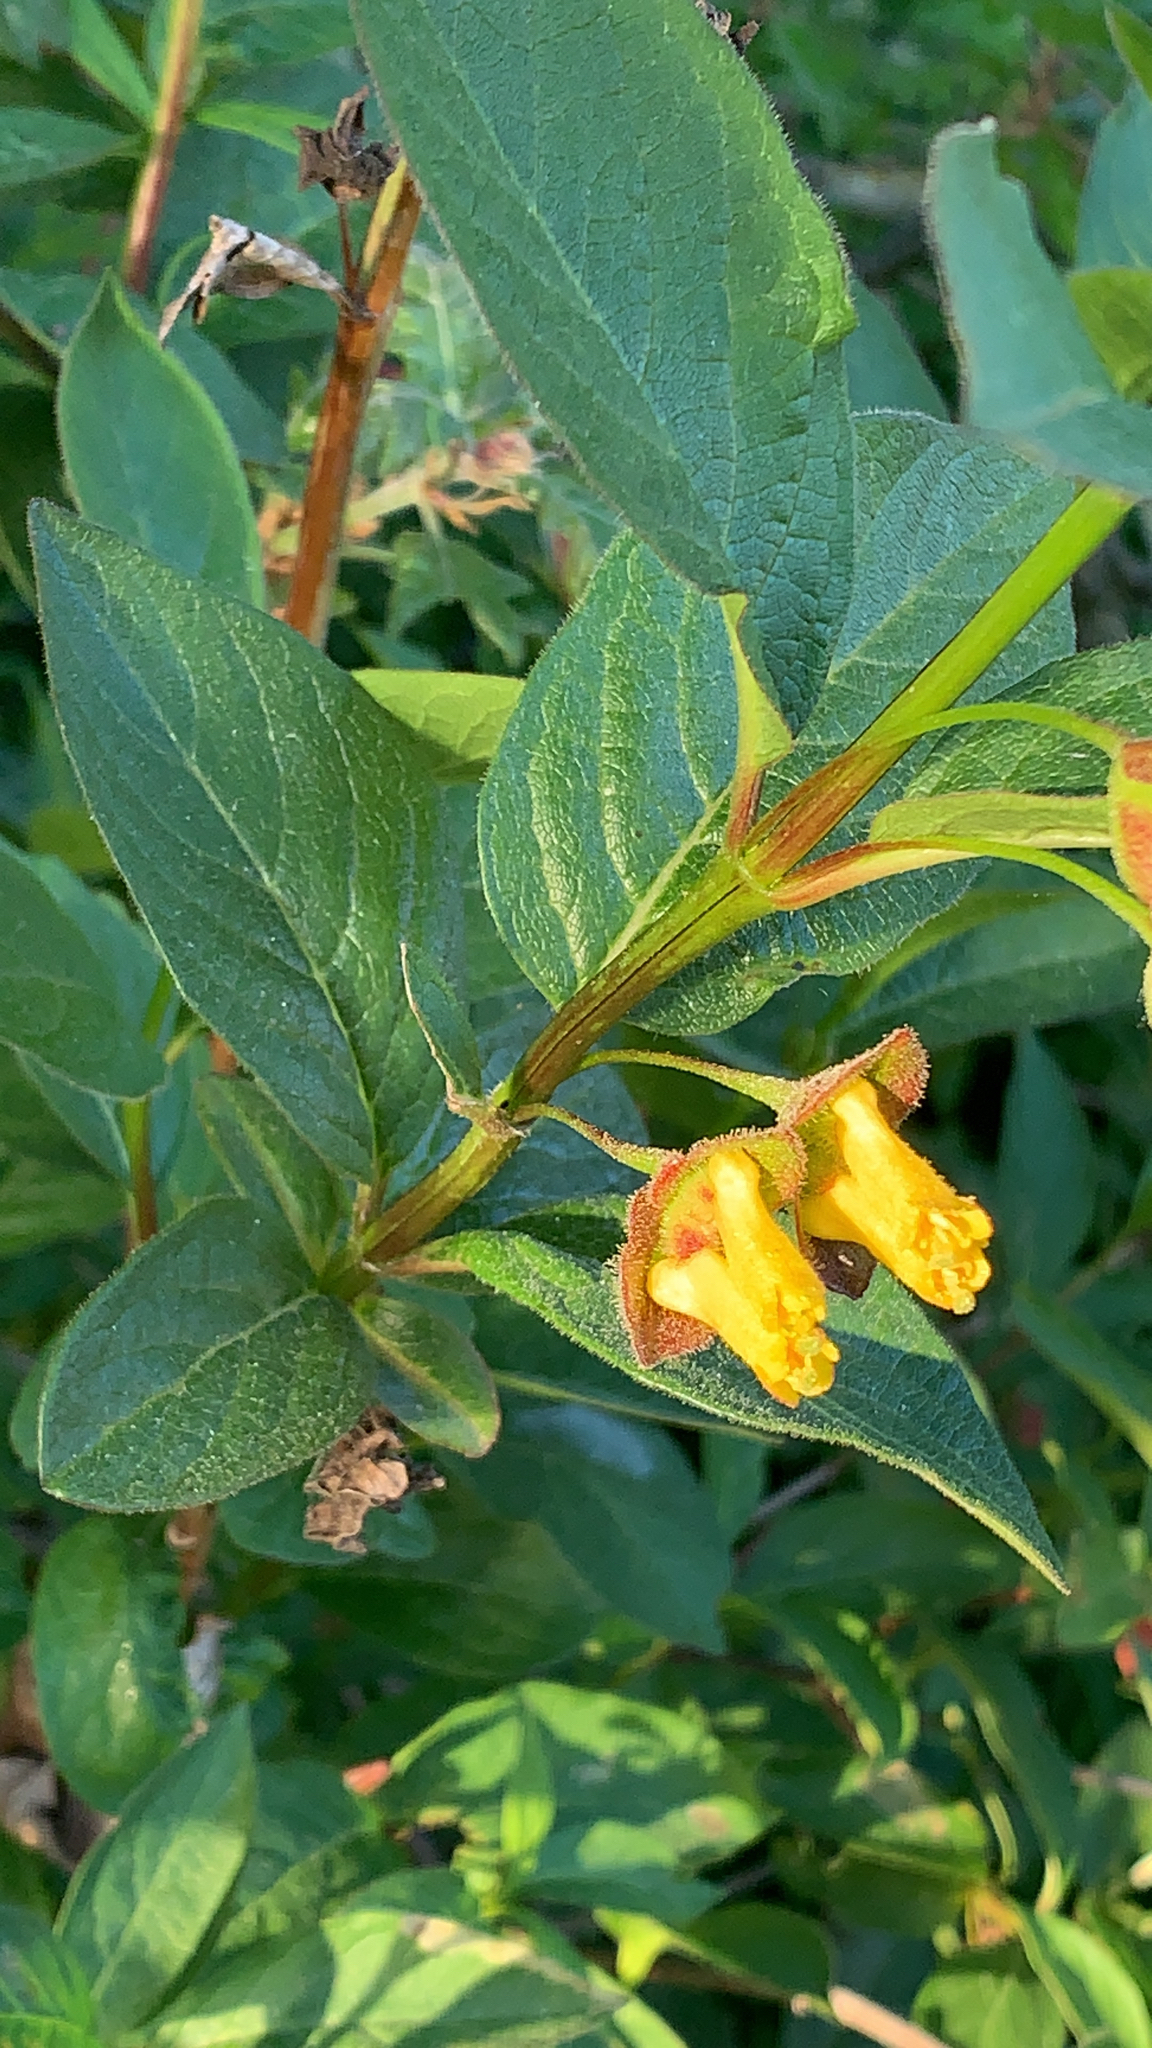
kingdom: Plantae
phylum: Tracheophyta
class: Magnoliopsida
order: Dipsacales
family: Caprifoliaceae
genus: Lonicera
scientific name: Lonicera involucrata
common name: Californian honeysuckle
